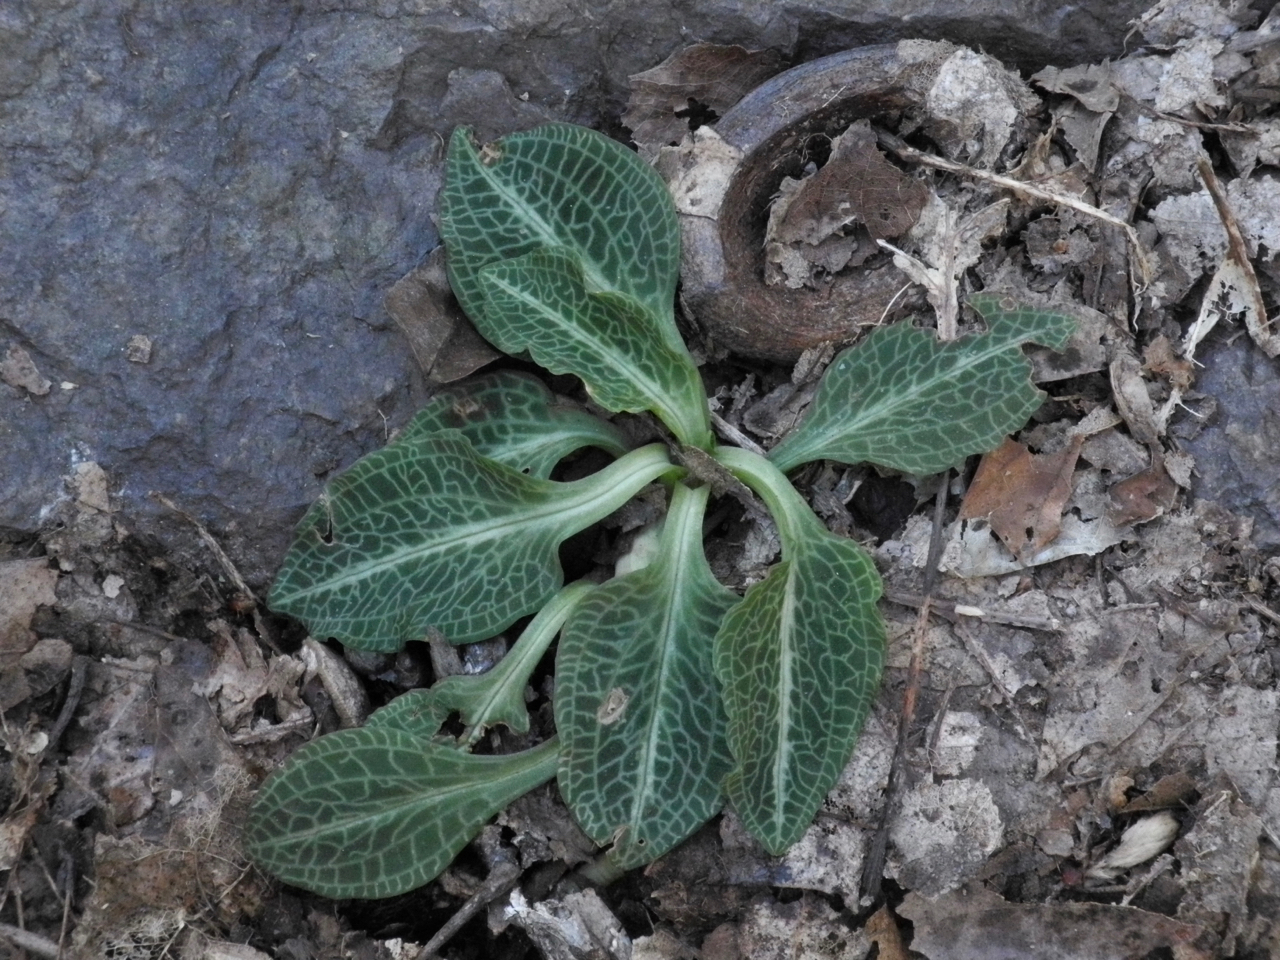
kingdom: Plantae
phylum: Tracheophyta
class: Liliopsida
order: Asparagales
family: Orchidaceae
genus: Goodyera
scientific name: Goodyera pubescens
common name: Downy rattlesnake-plantain
